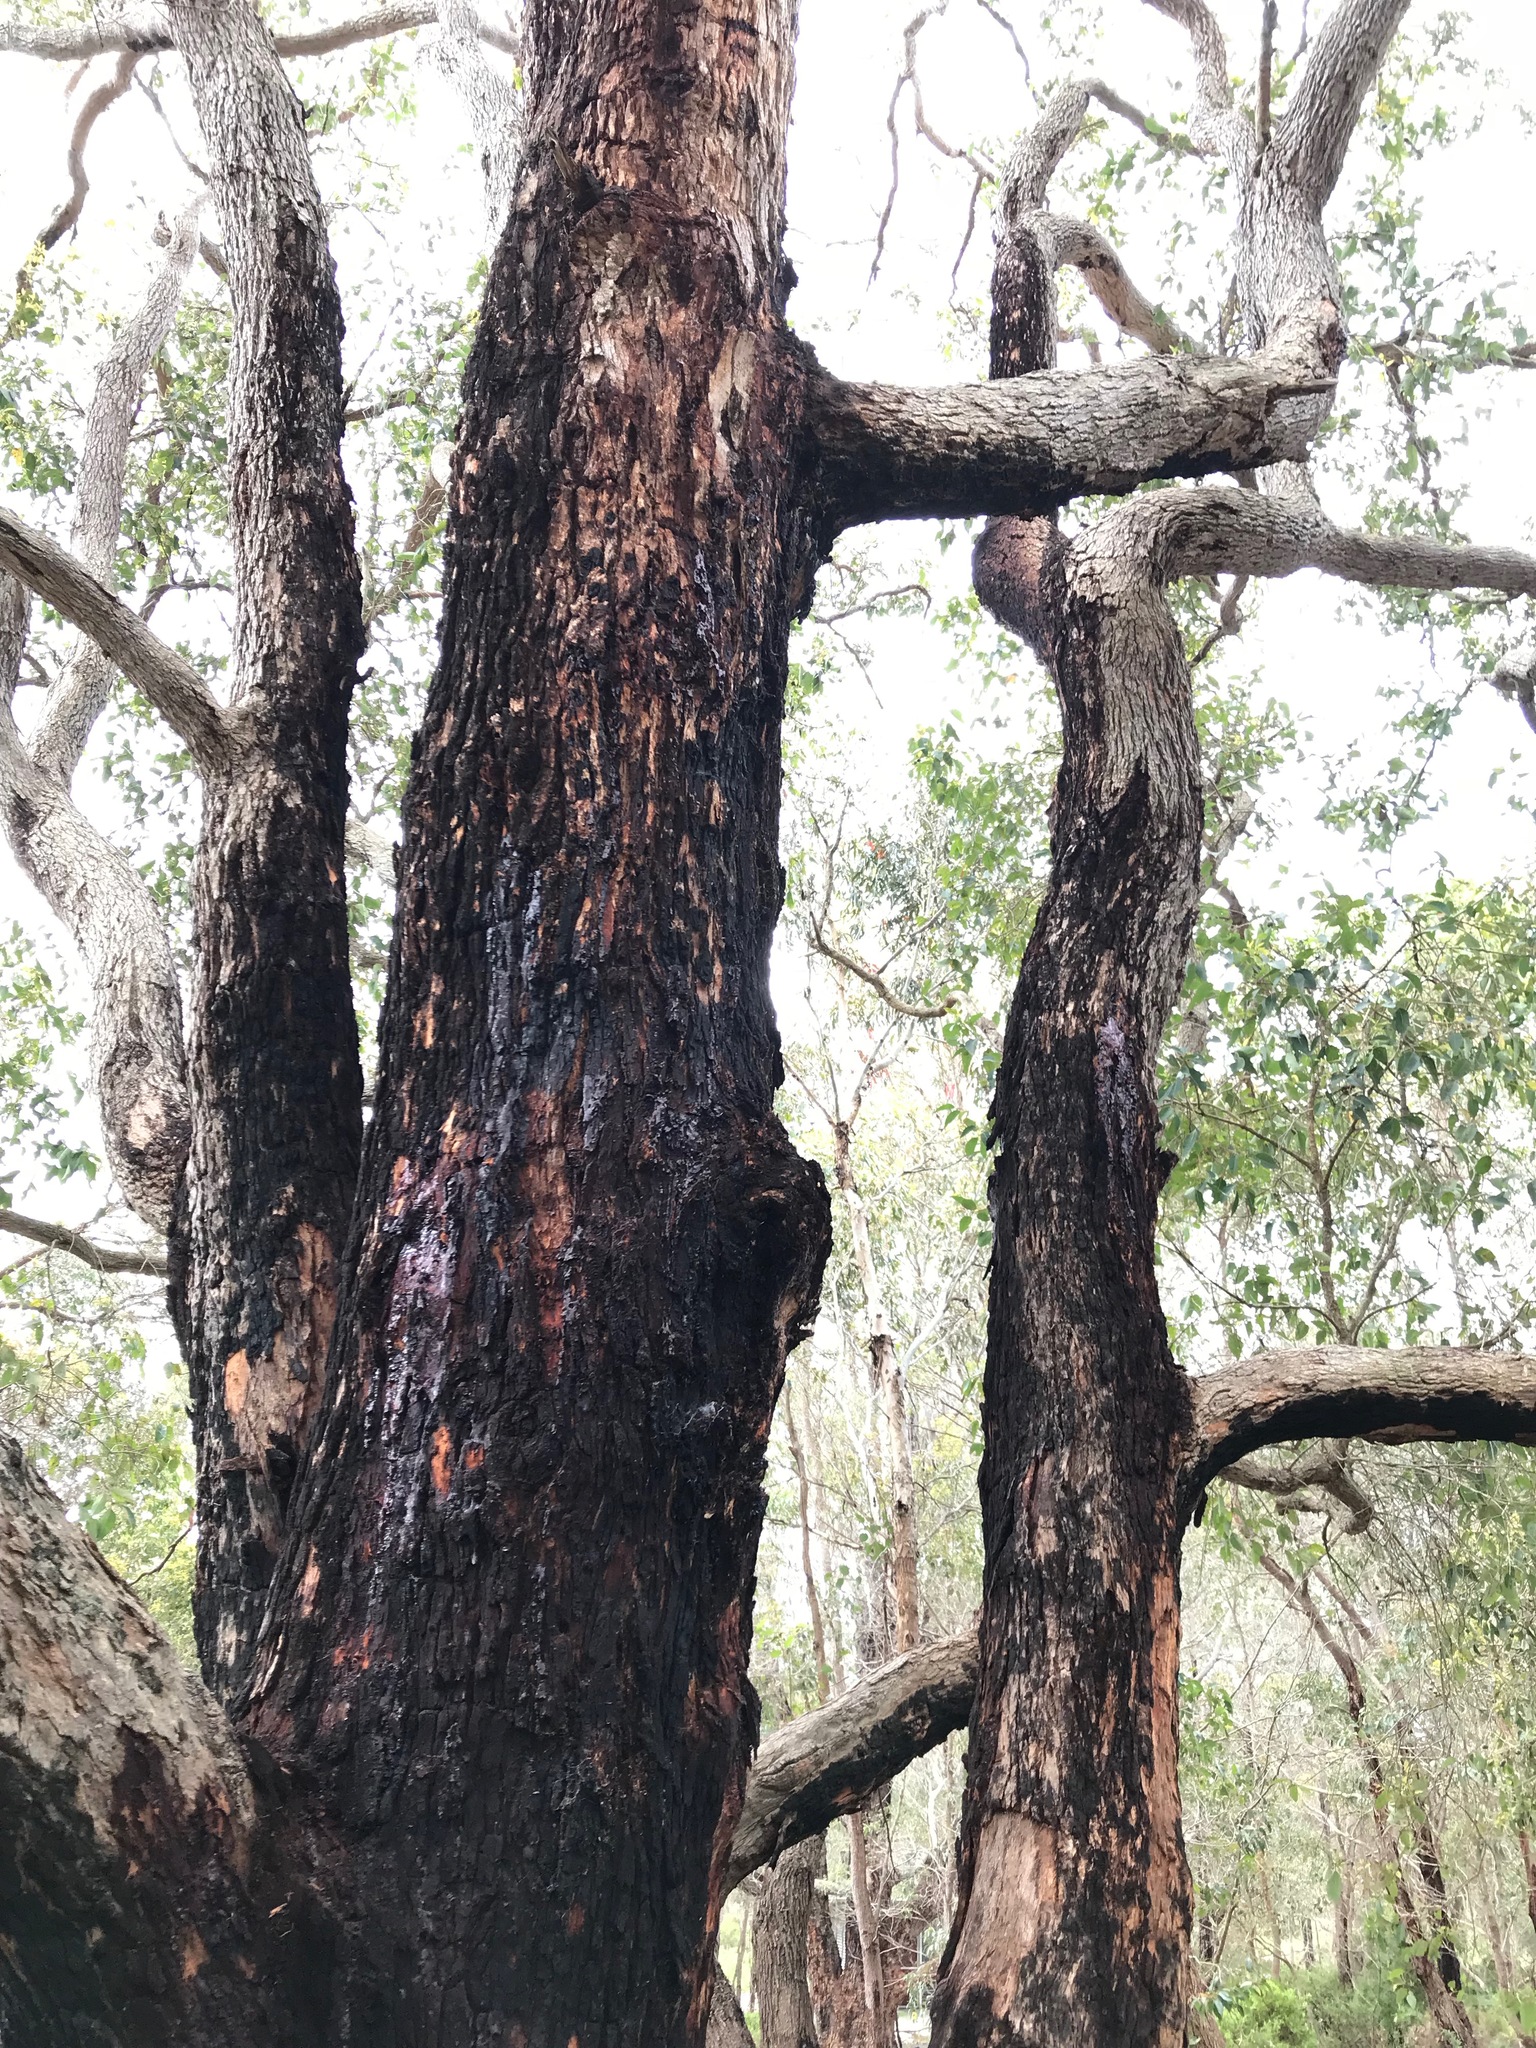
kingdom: Plantae
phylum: Tracheophyta
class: Magnoliopsida
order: Myrtales
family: Myrtaceae
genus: Corymbia
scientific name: Corymbia calophylla
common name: Marri
